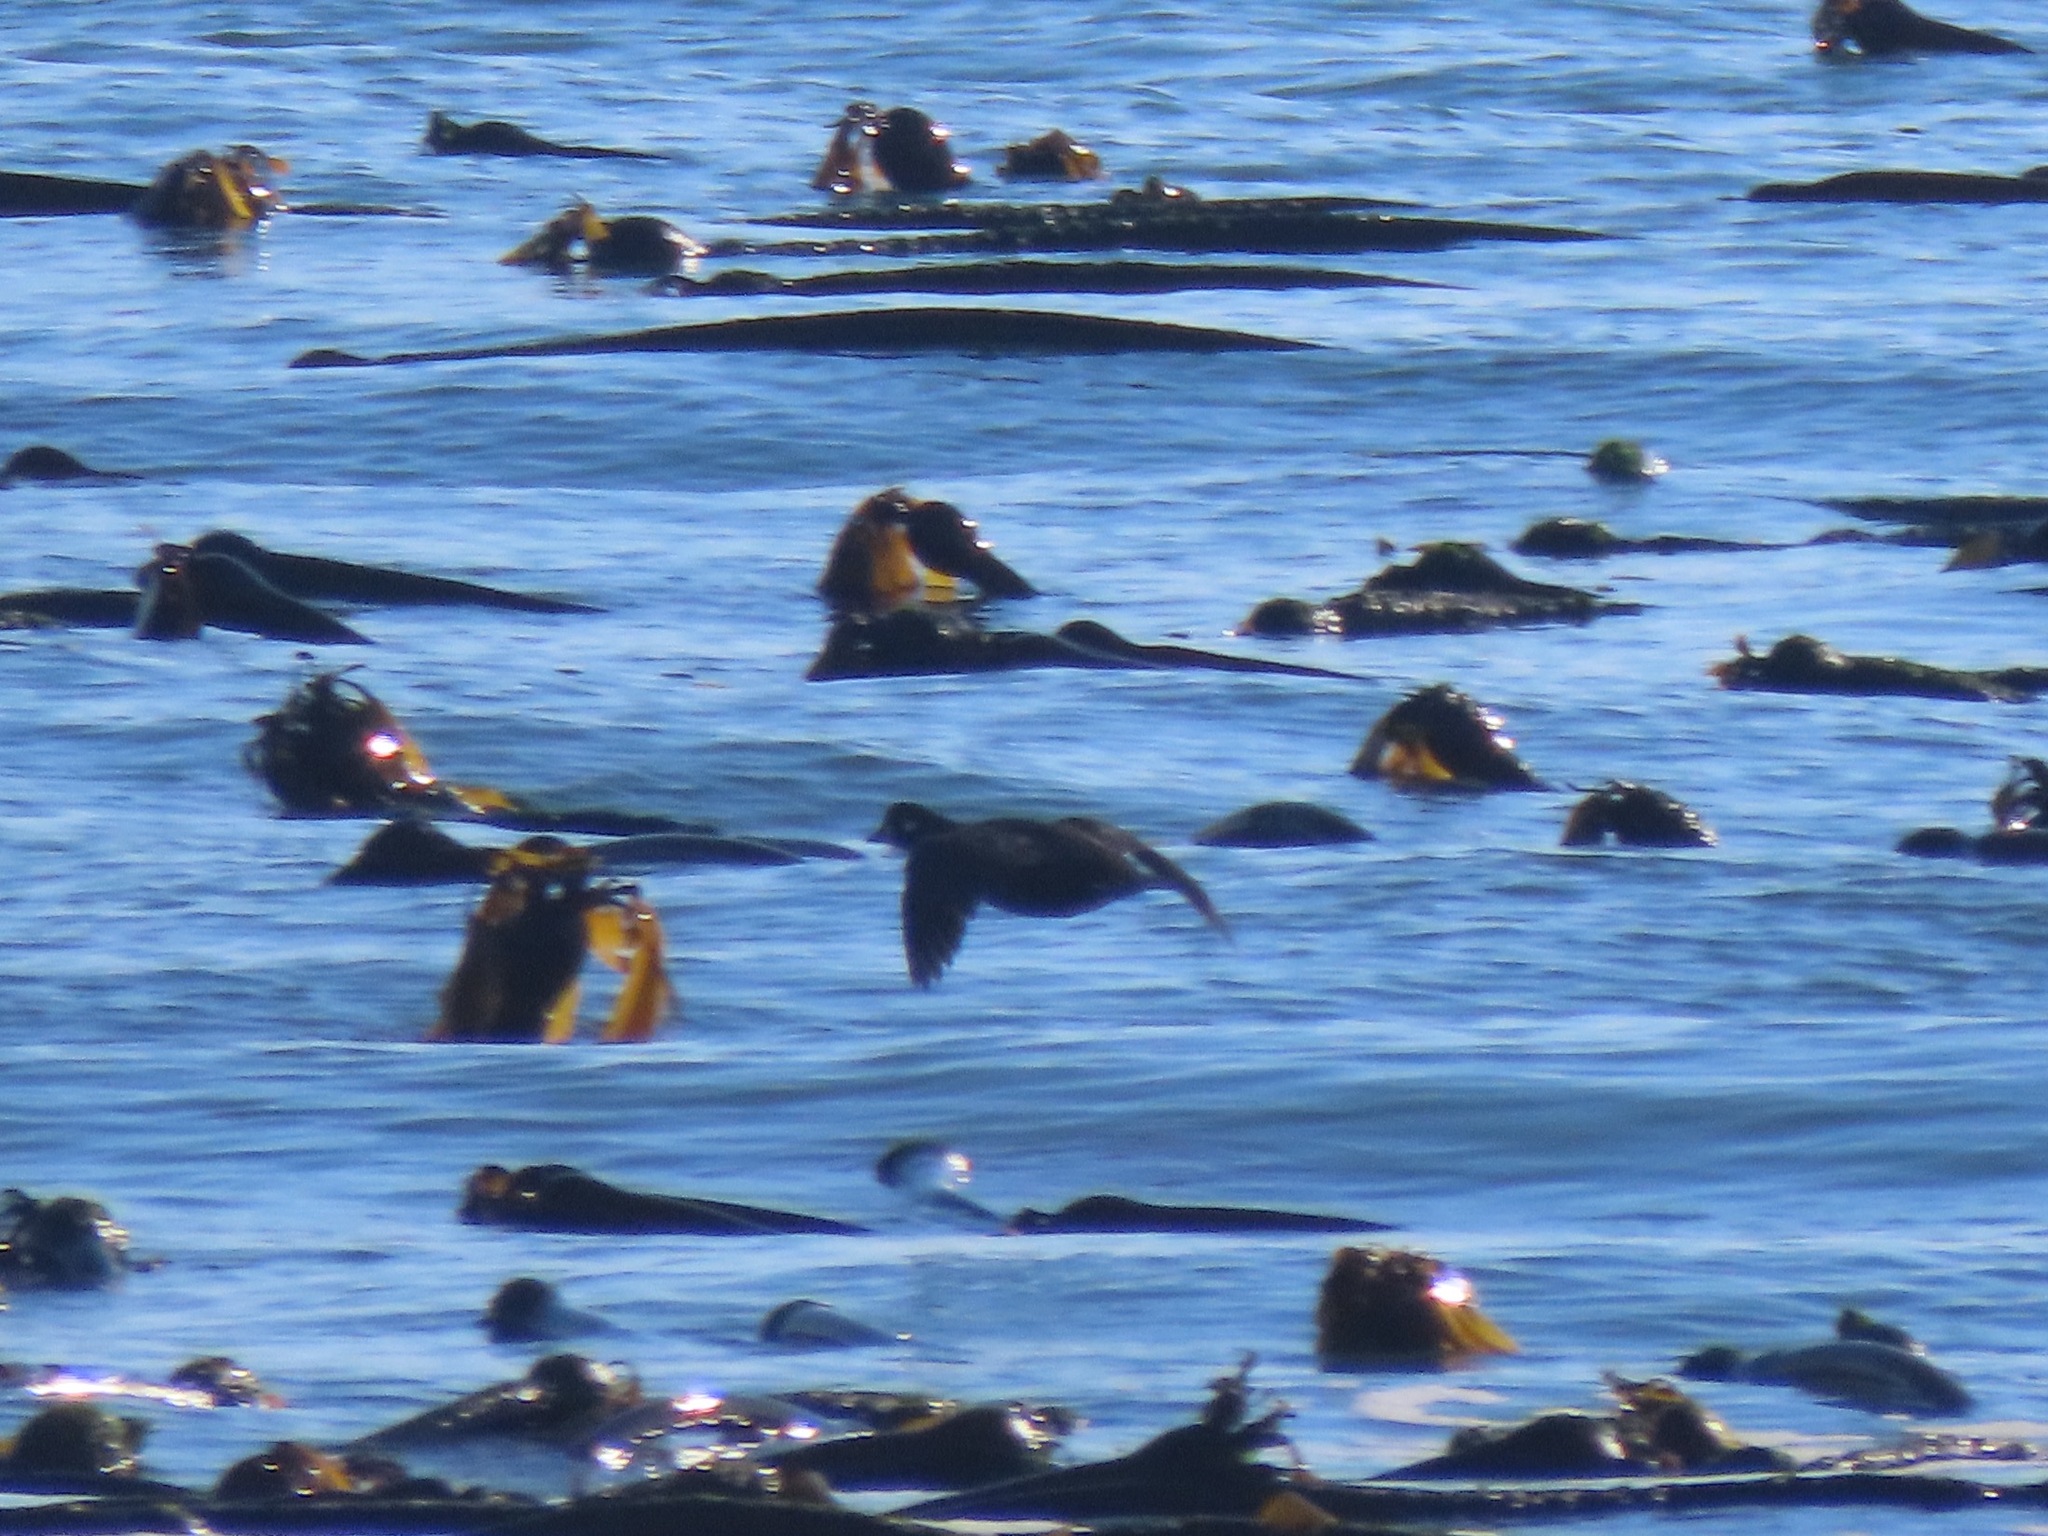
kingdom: Animalia
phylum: Chordata
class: Aves
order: Anseriformes
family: Anatidae
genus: Histrionicus
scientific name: Histrionicus histrionicus
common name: Harlequin duck
